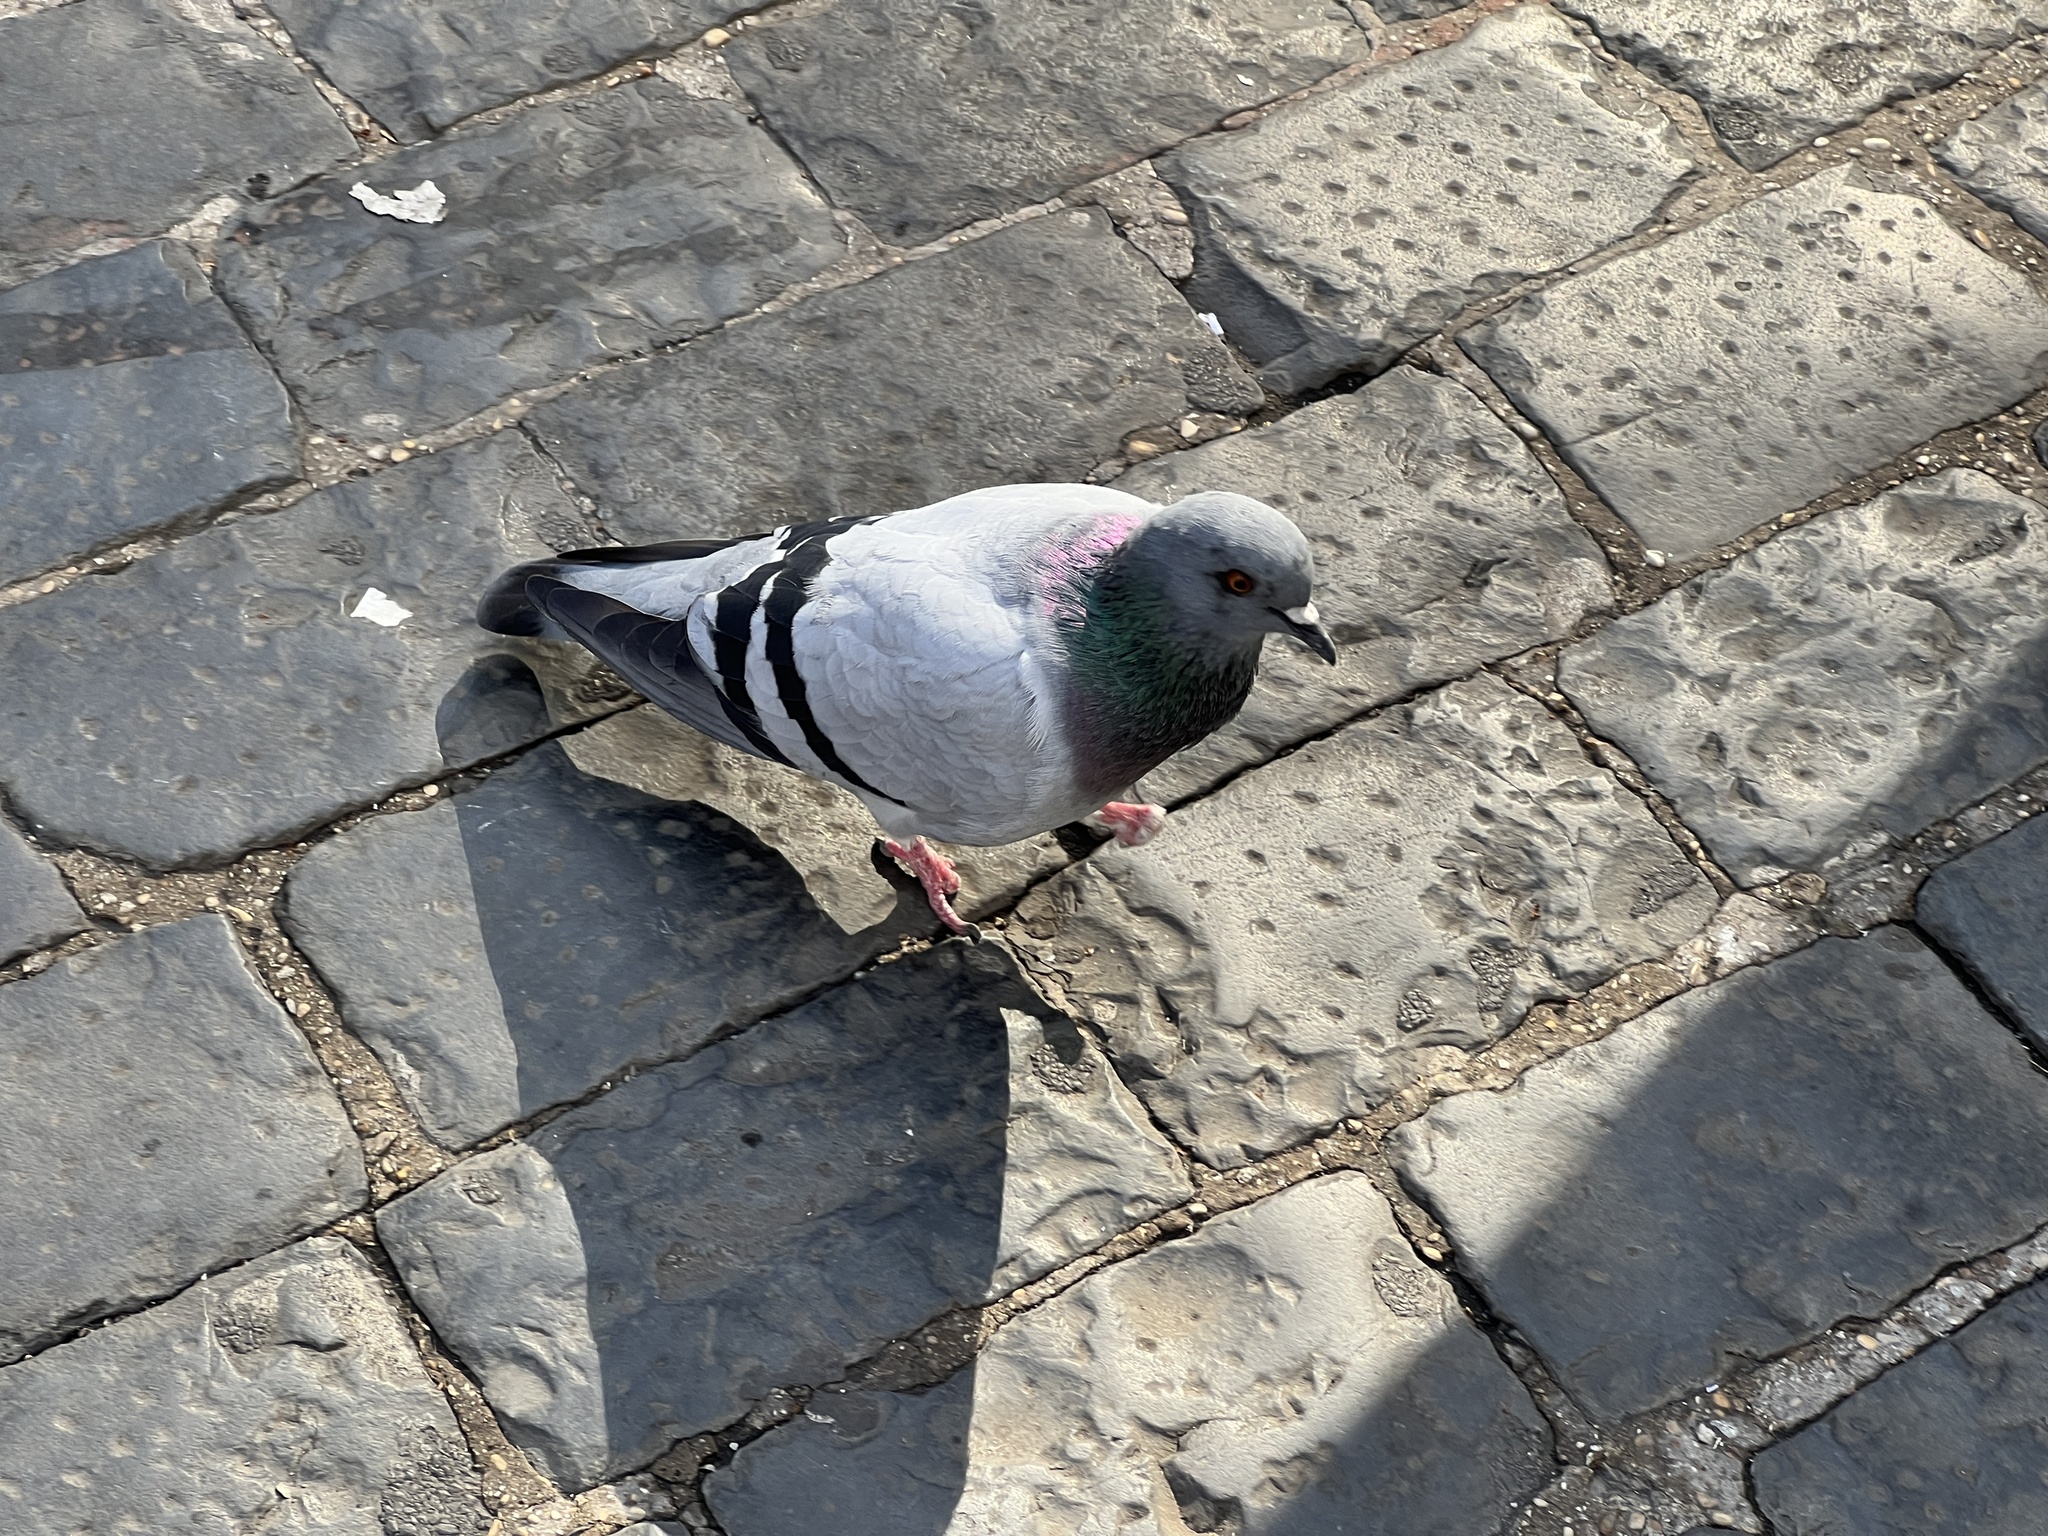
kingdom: Animalia
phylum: Chordata
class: Aves
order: Columbiformes
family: Columbidae
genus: Columba
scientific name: Columba livia
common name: Rock pigeon
